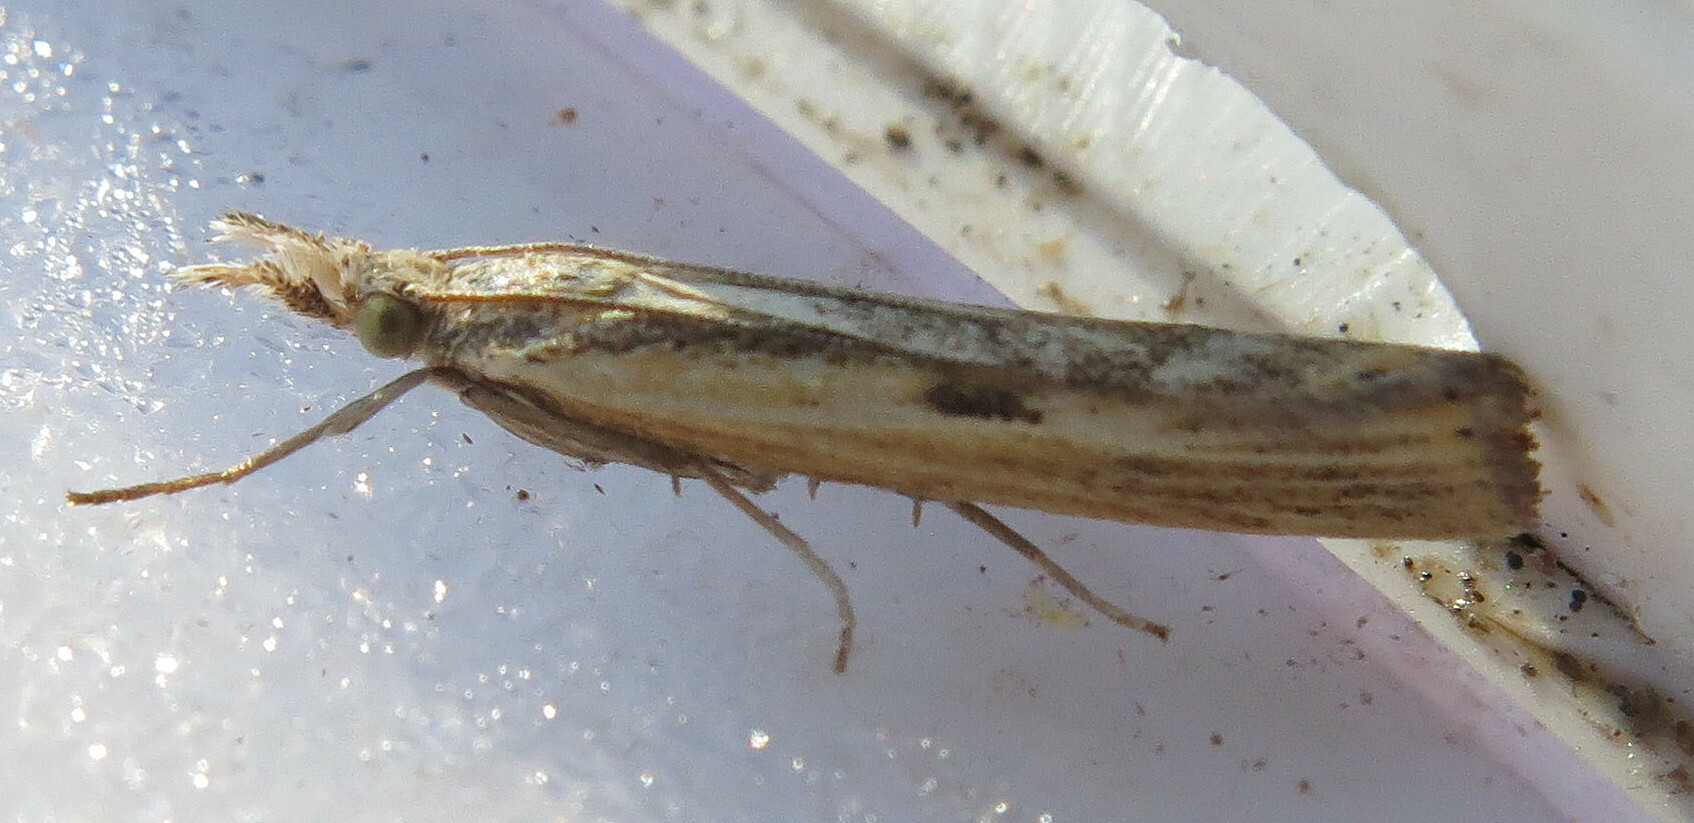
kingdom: Animalia
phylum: Arthropoda
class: Insecta
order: Lepidoptera
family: Crambidae
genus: Agriphila
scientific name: Agriphila inquinatella
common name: Barred grass-veneer
